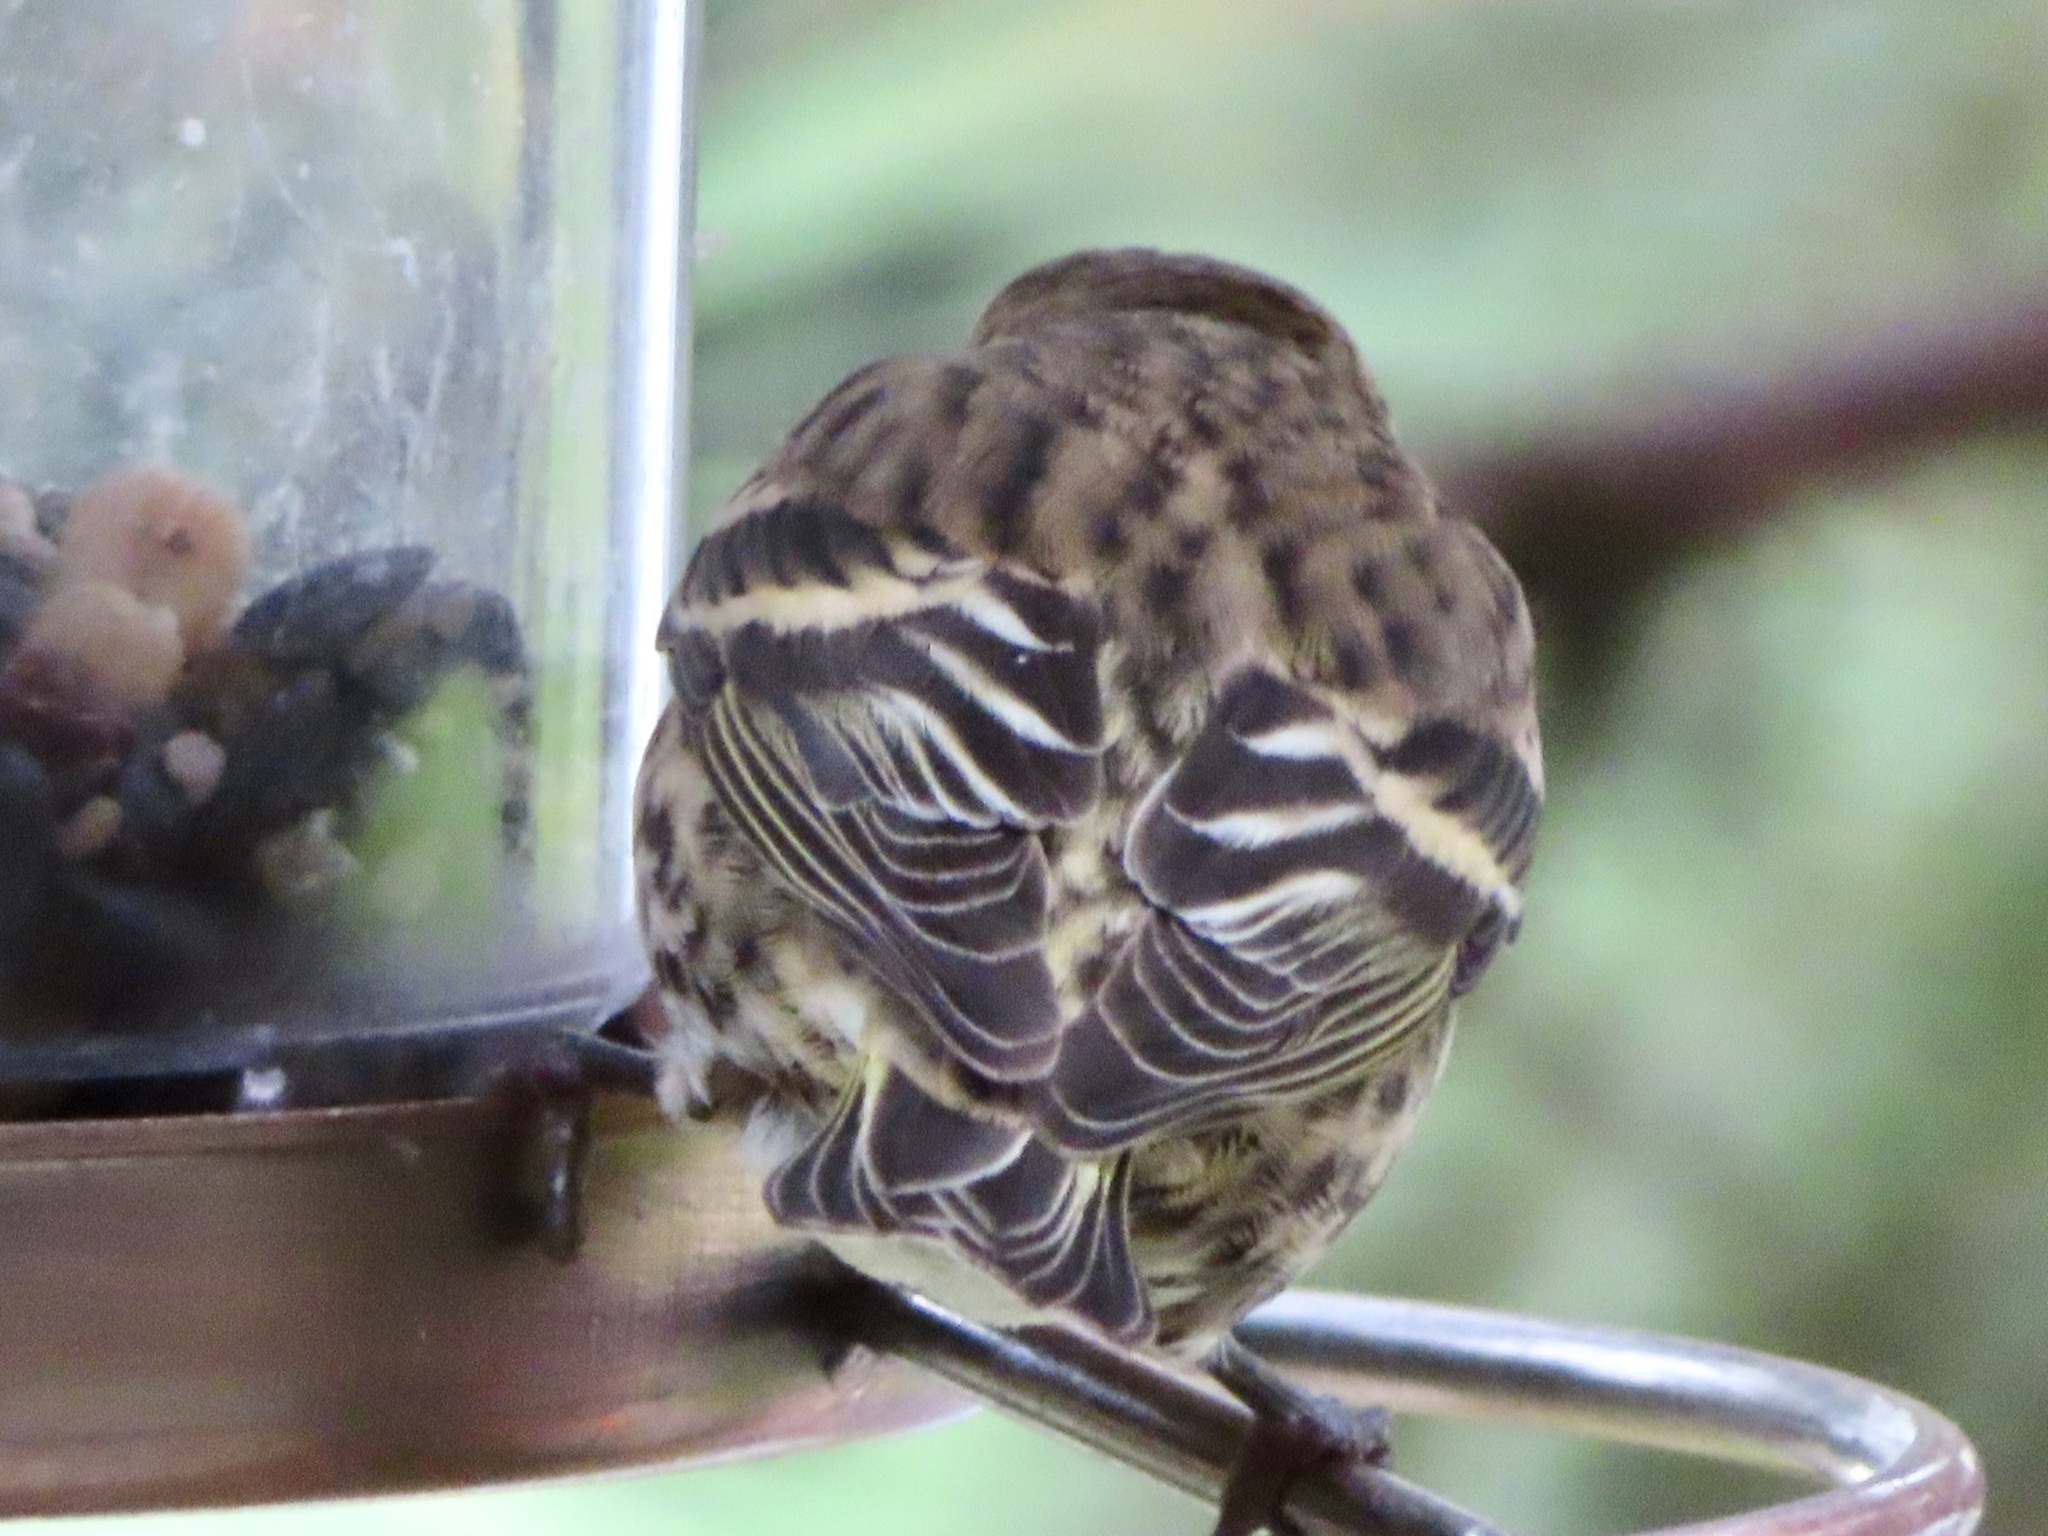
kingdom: Animalia
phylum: Chordata
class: Aves
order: Passeriformes
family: Fringillidae
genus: Spinus
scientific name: Spinus pinus
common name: Pine siskin
